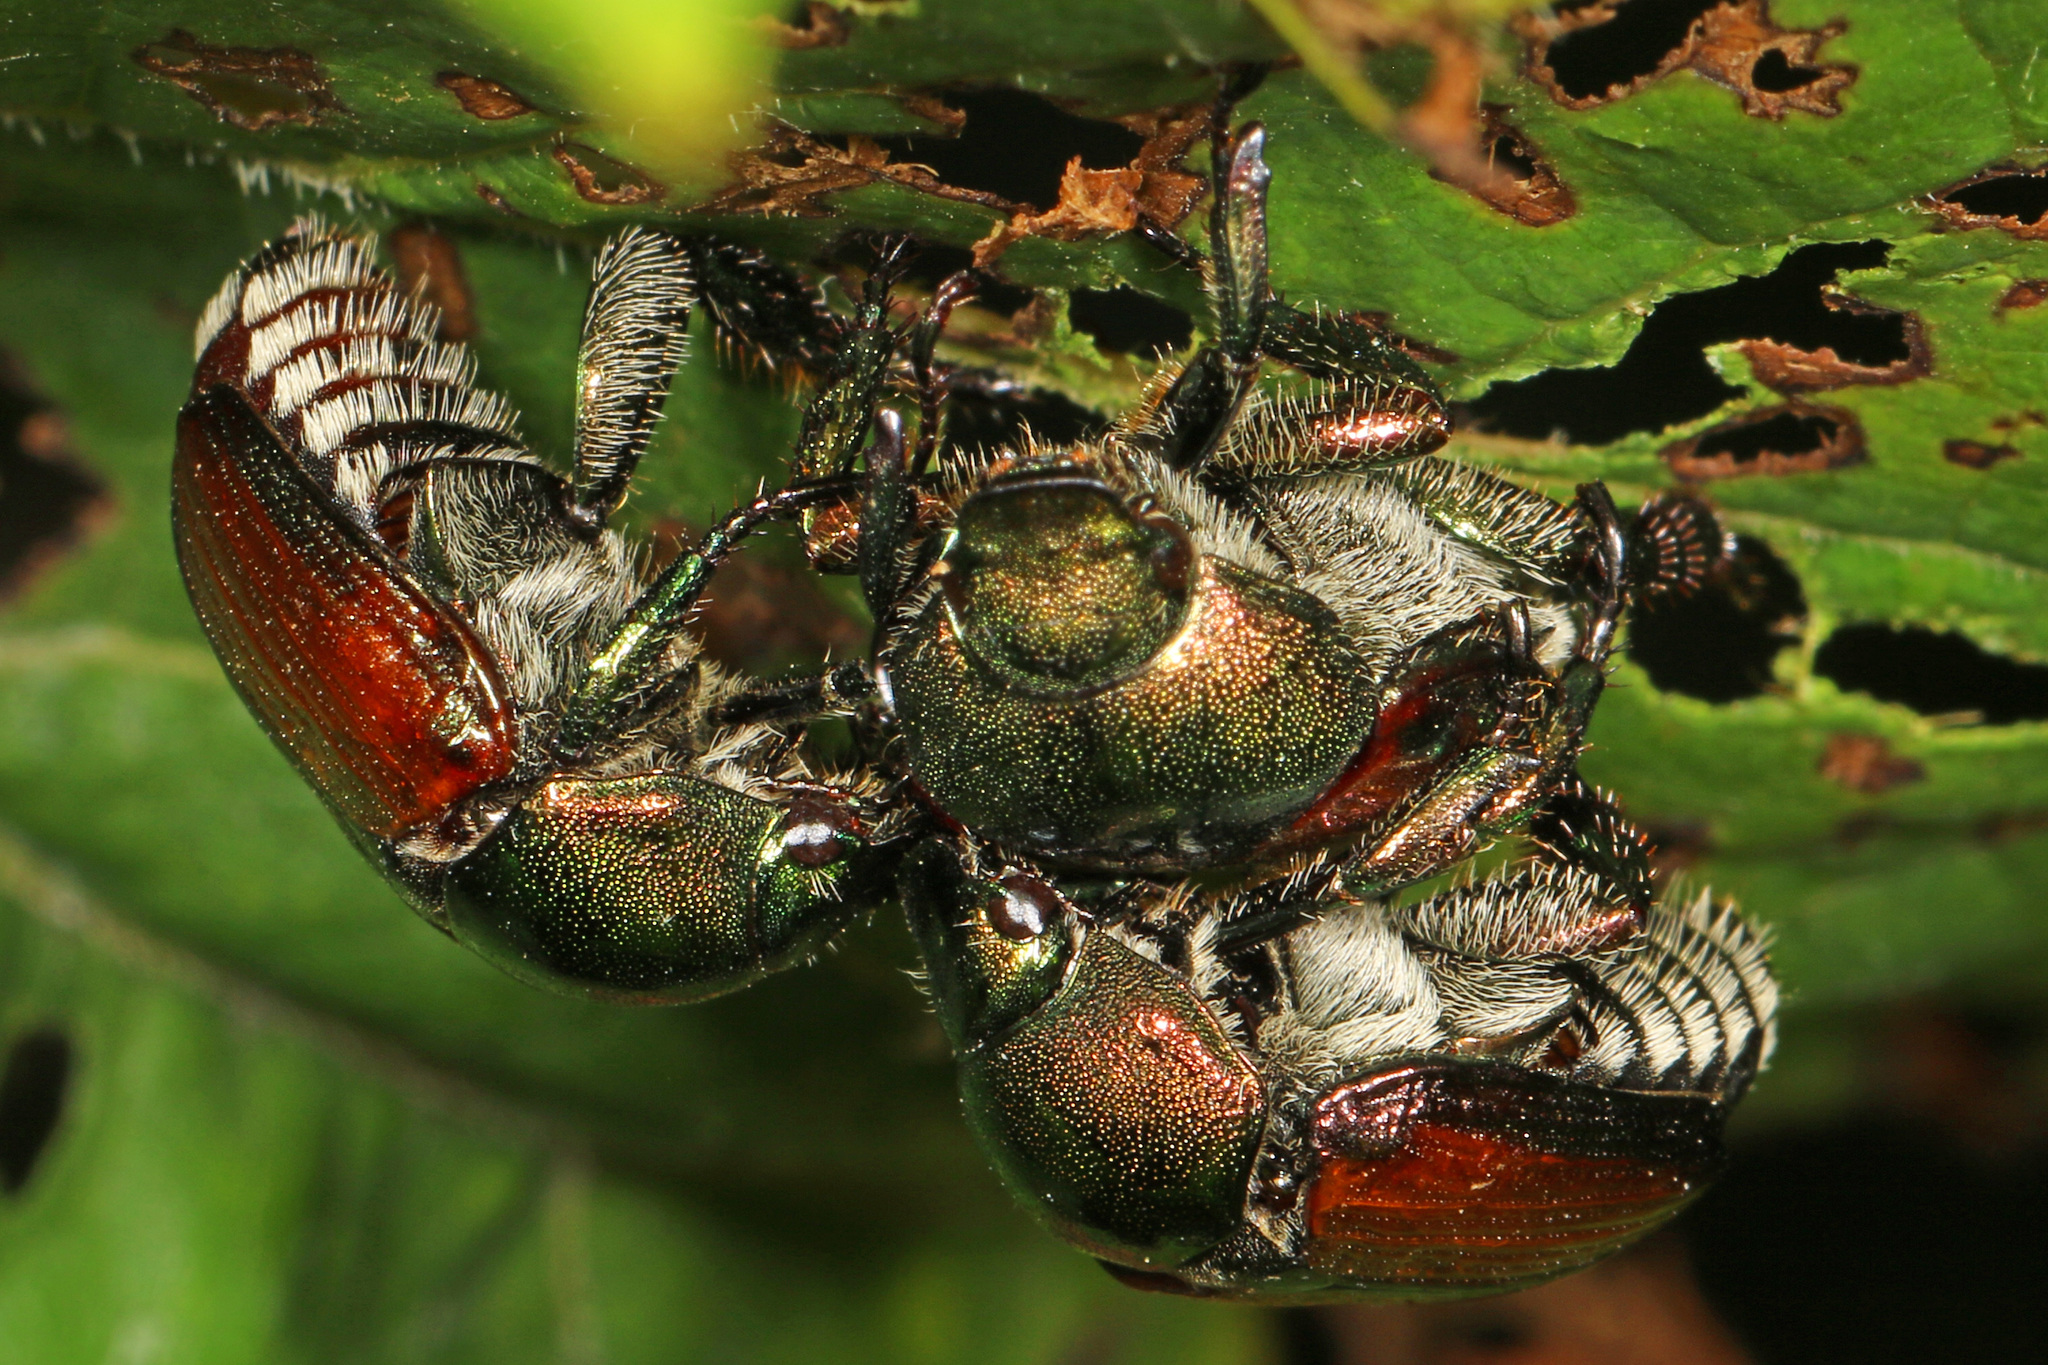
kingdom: Animalia
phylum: Arthropoda
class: Insecta
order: Coleoptera
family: Scarabaeidae
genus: Popillia
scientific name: Popillia japonica
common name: Japanese beetle
